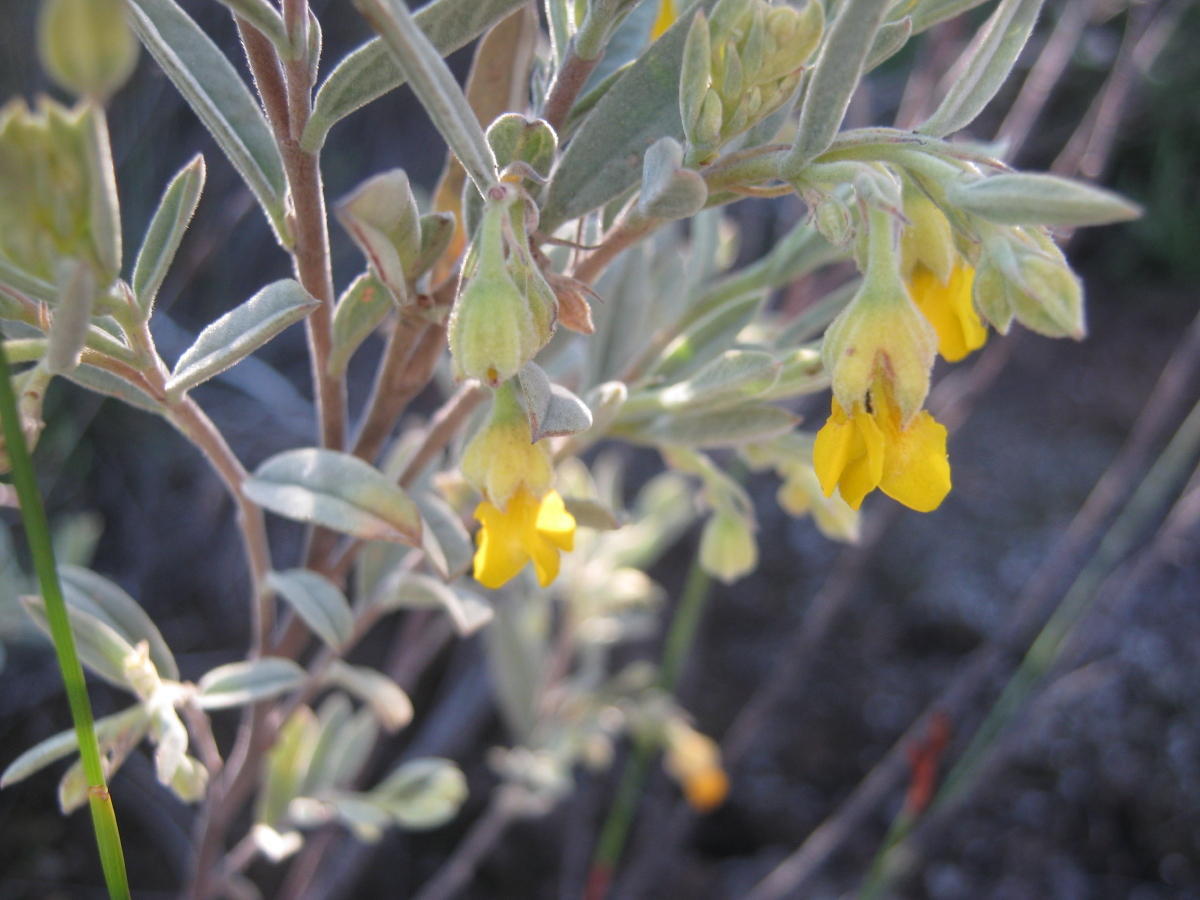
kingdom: Plantae
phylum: Tracheophyta
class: Magnoliopsida
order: Malvales
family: Malvaceae
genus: Hermannia
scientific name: Hermannia velutina
